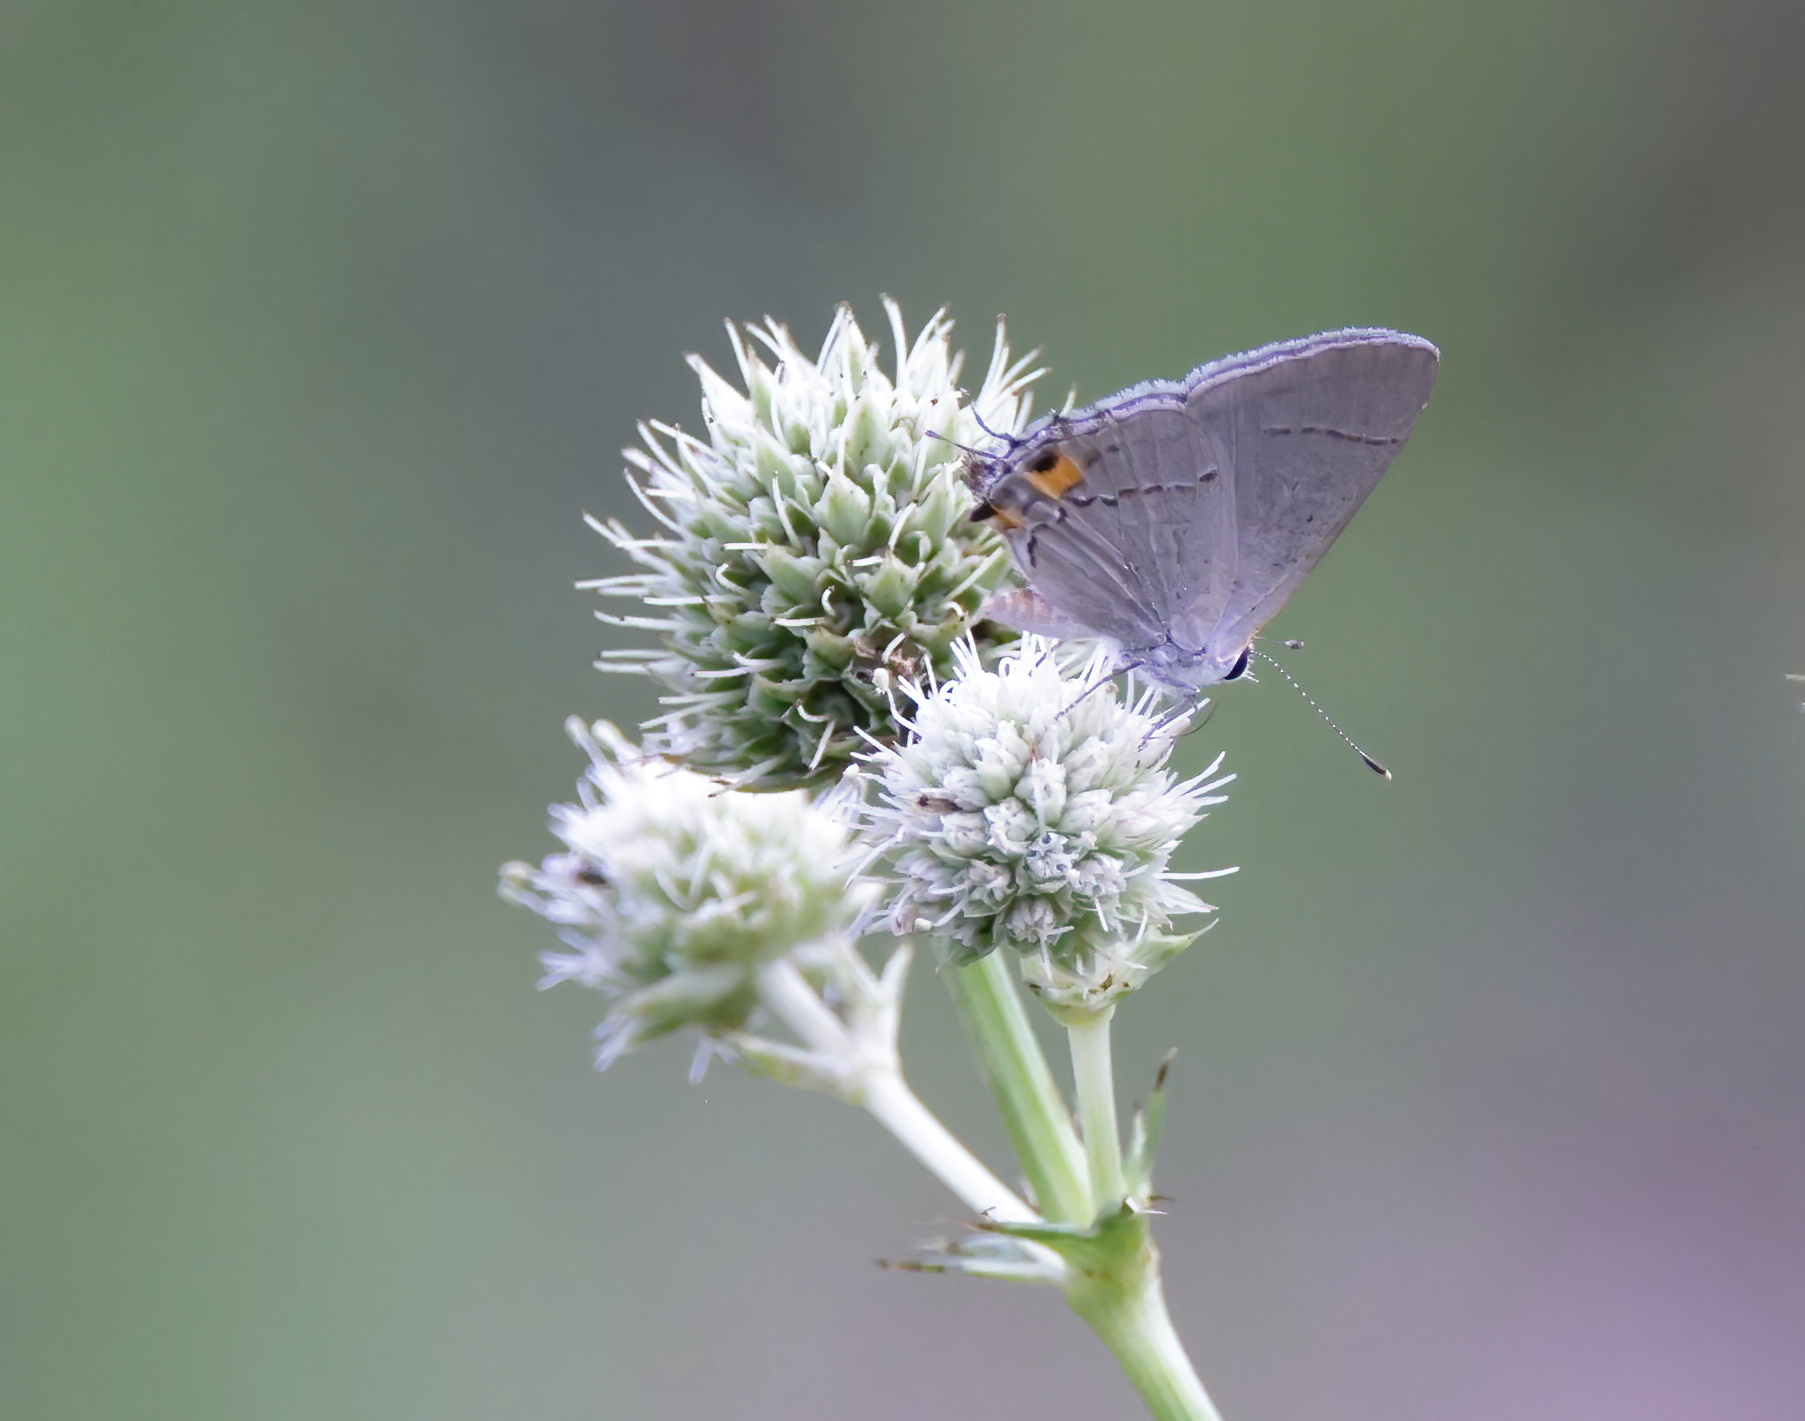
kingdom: Animalia
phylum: Arthropoda
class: Insecta
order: Lepidoptera
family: Lycaenidae
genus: Strymon
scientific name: Strymon melinus
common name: Gray hairstreak
